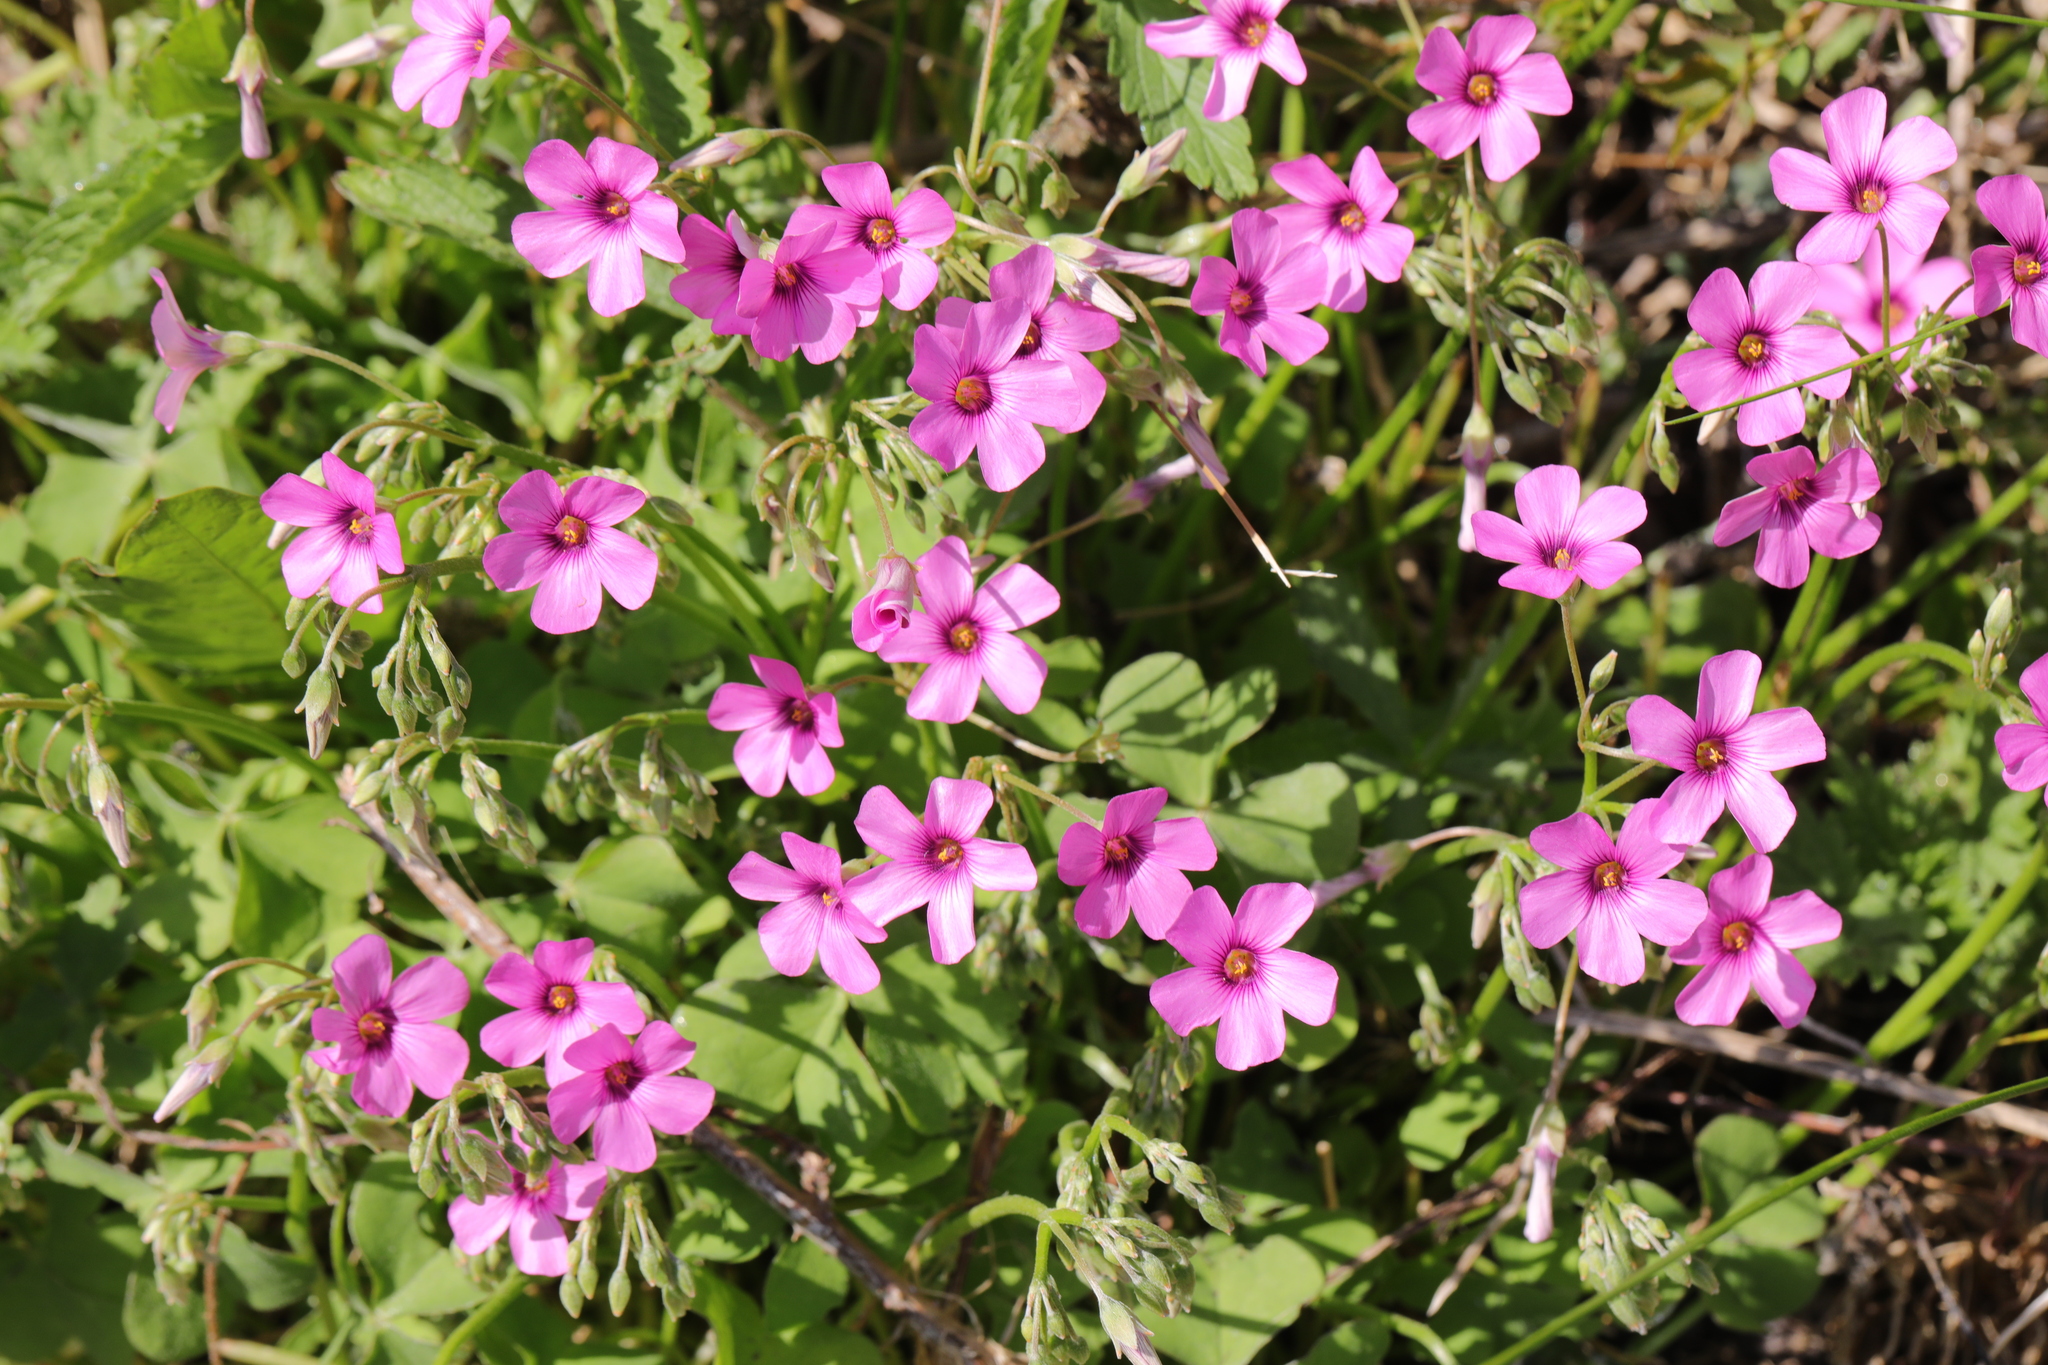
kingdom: Plantae
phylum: Tracheophyta
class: Magnoliopsida
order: Oxalidales
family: Oxalidaceae
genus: Oxalis
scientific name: Oxalis articulata
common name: Pink-sorrel
